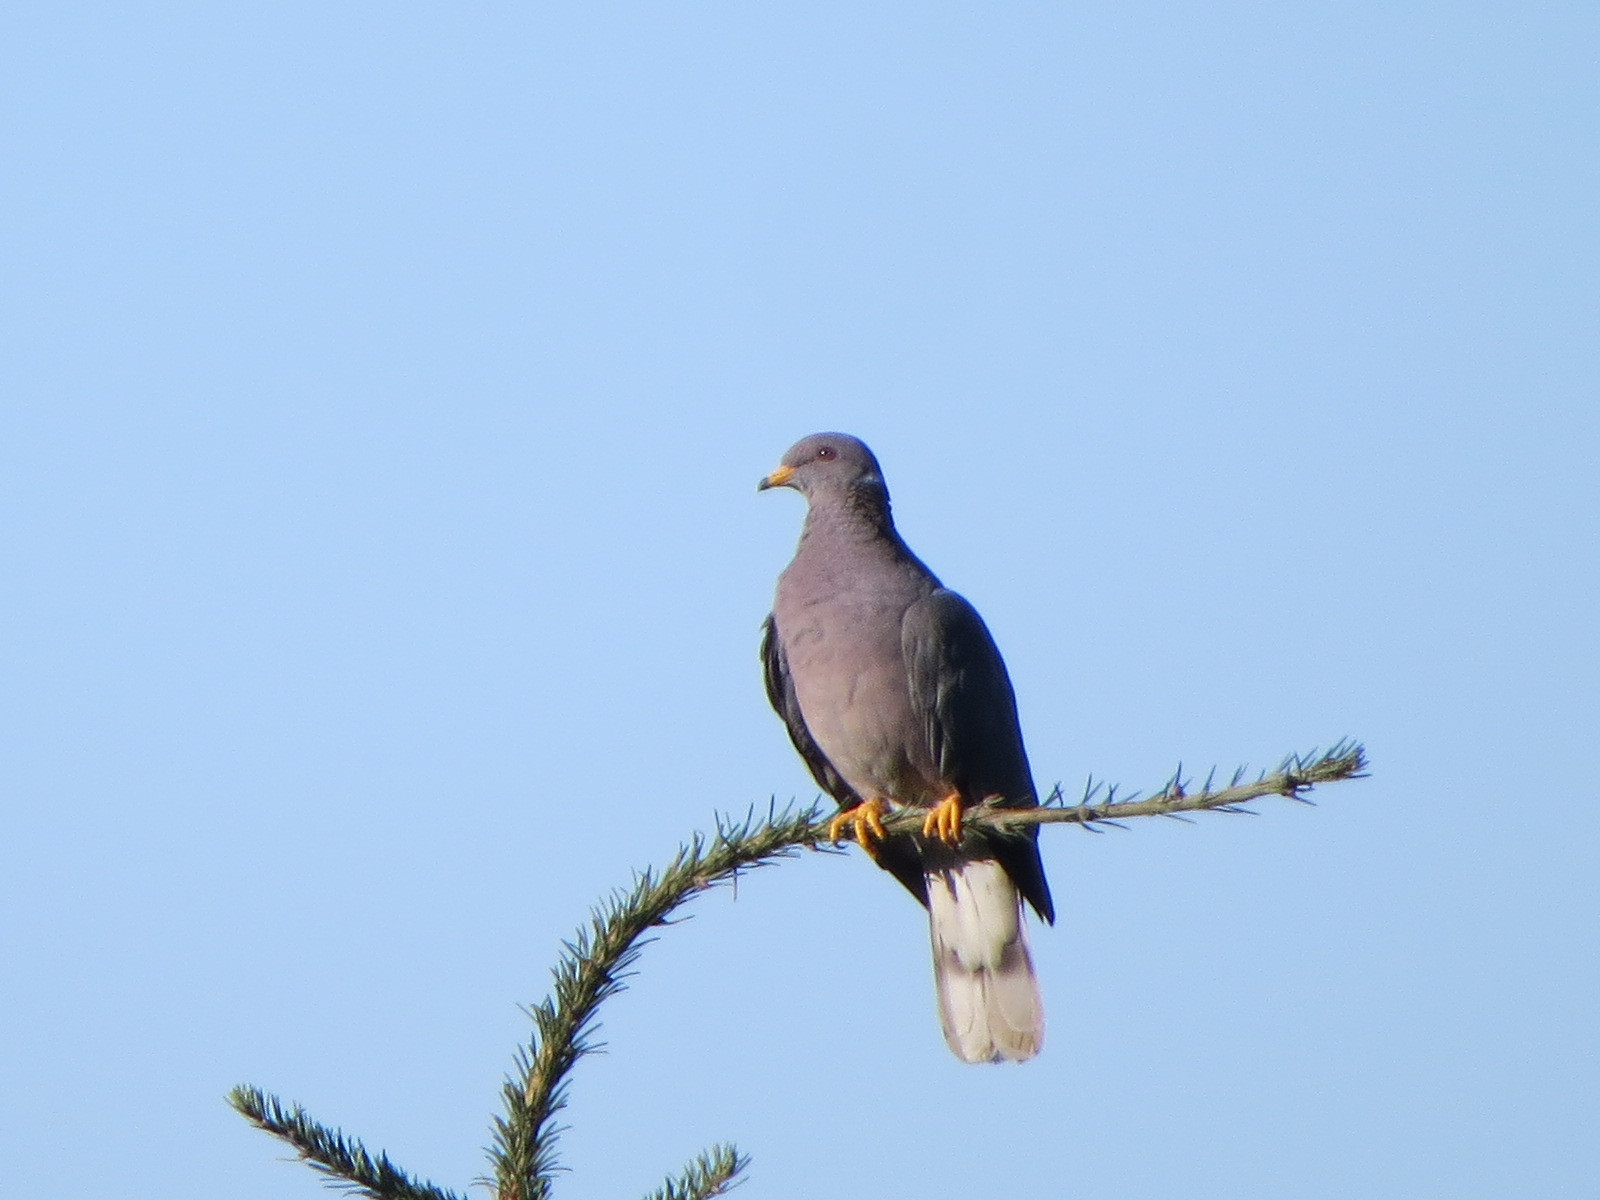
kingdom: Animalia
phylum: Chordata
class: Aves
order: Columbiformes
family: Columbidae
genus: Patagioenas
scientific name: Patagioenas fasciata
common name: Band-tailed pigeon
